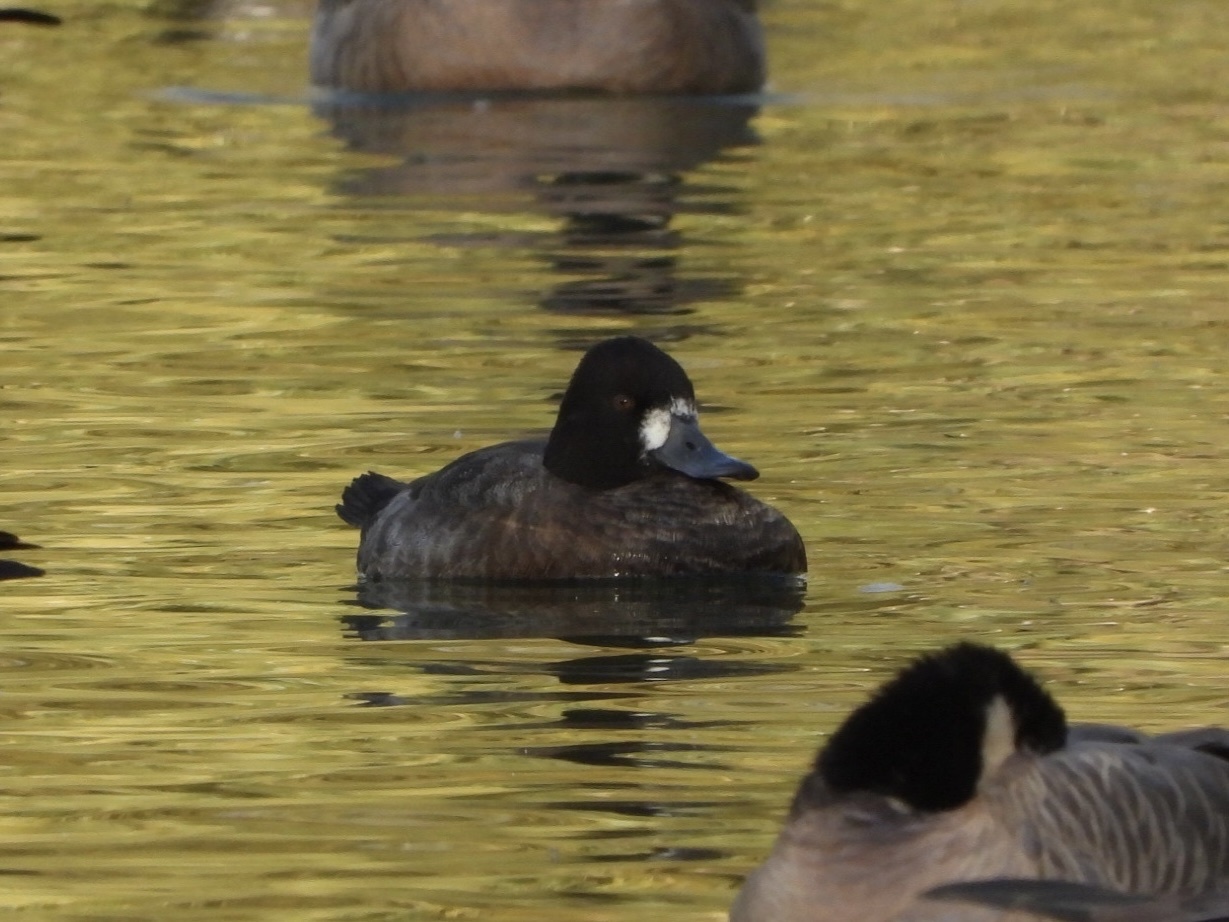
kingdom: Animalia
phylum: Chordata
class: Aves
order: Anseriformes
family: Anatidae
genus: Aythya
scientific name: Aythya affinis
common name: Lesser scaup
